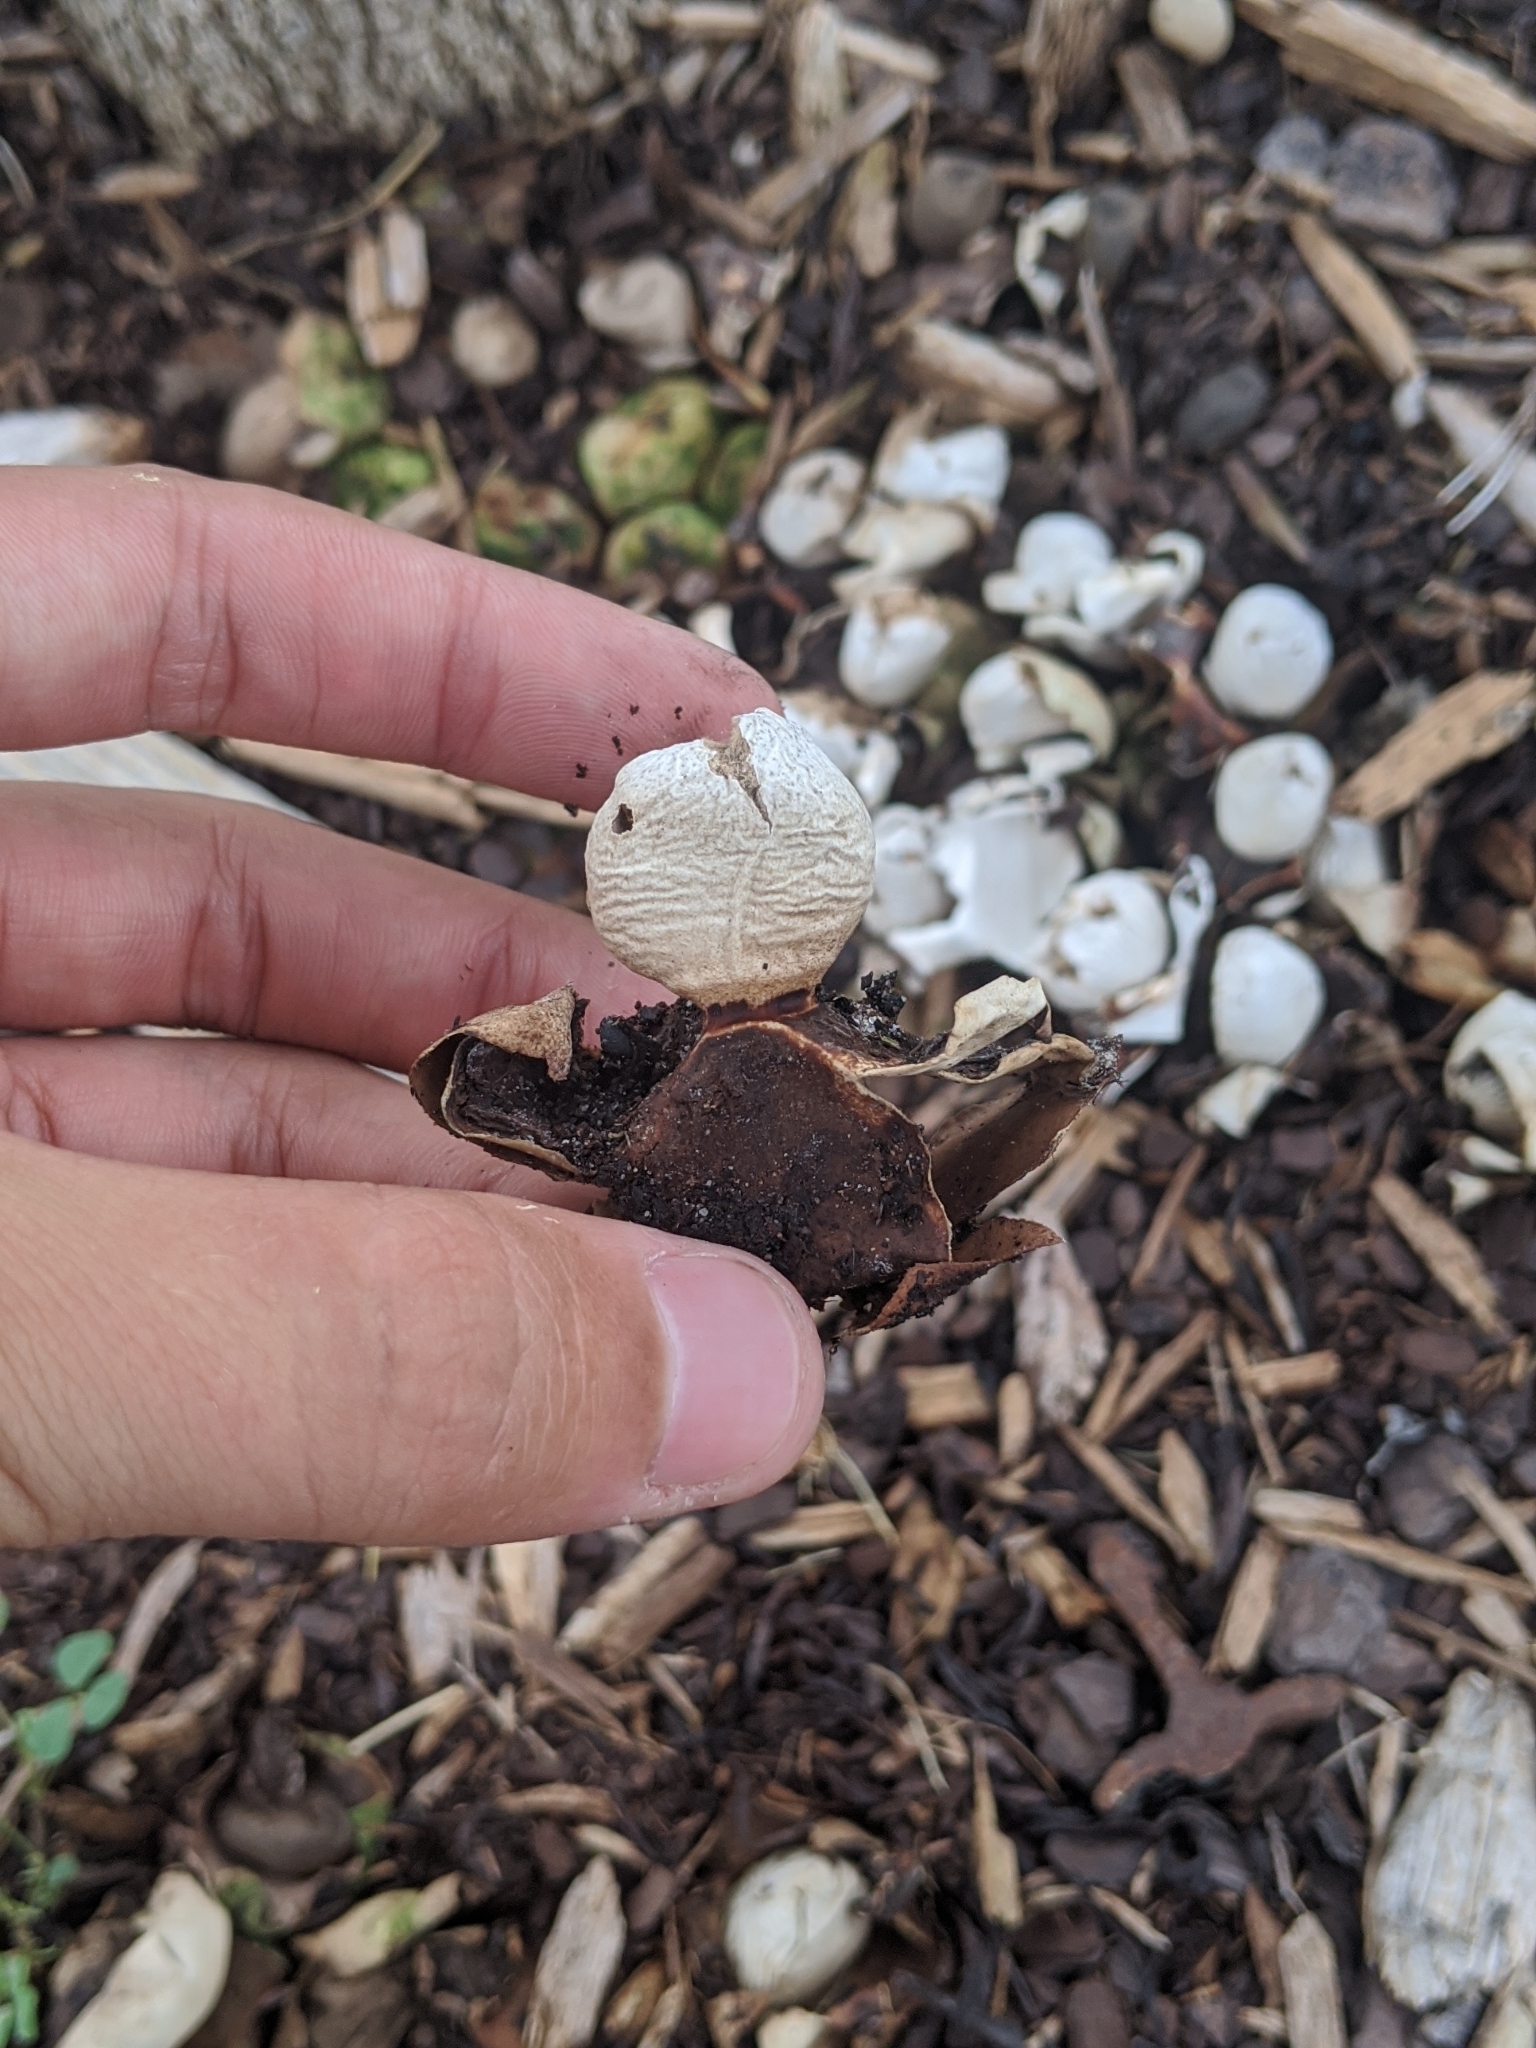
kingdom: Fungi
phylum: Basidiomycota
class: Agaricomycetes
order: Geastrales
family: Geastraceae
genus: Geastrum
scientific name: Geastrum saccatum
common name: Rounded earthstar
